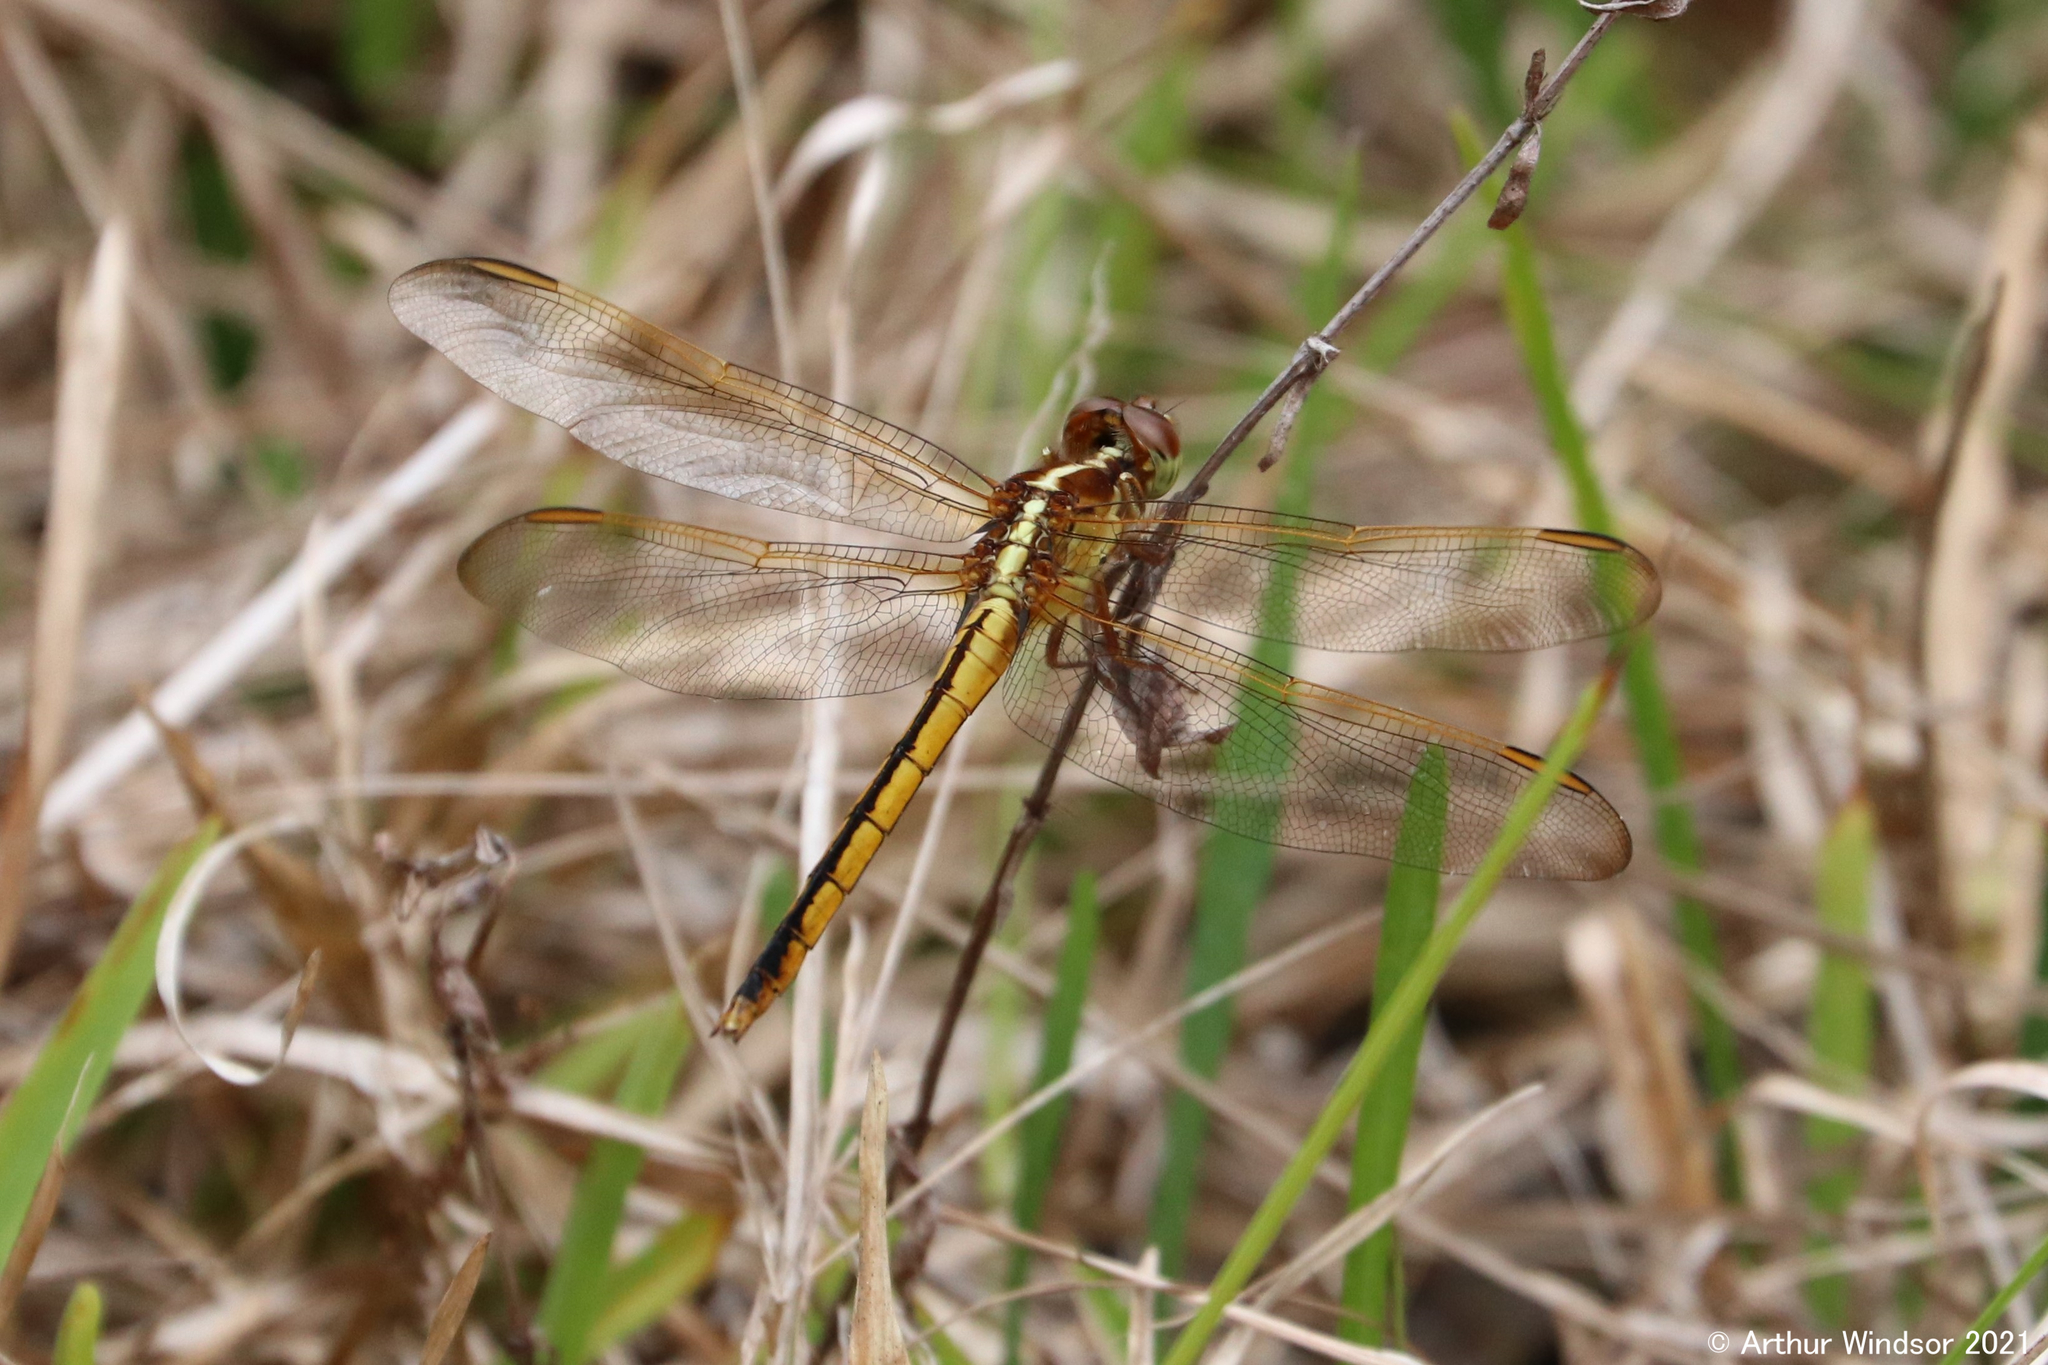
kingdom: Animalia
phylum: Arthropoda
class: Insecta
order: Odonata
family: Libellulidae
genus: Libellula
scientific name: Libellula needhami
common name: Needham's skimmer
